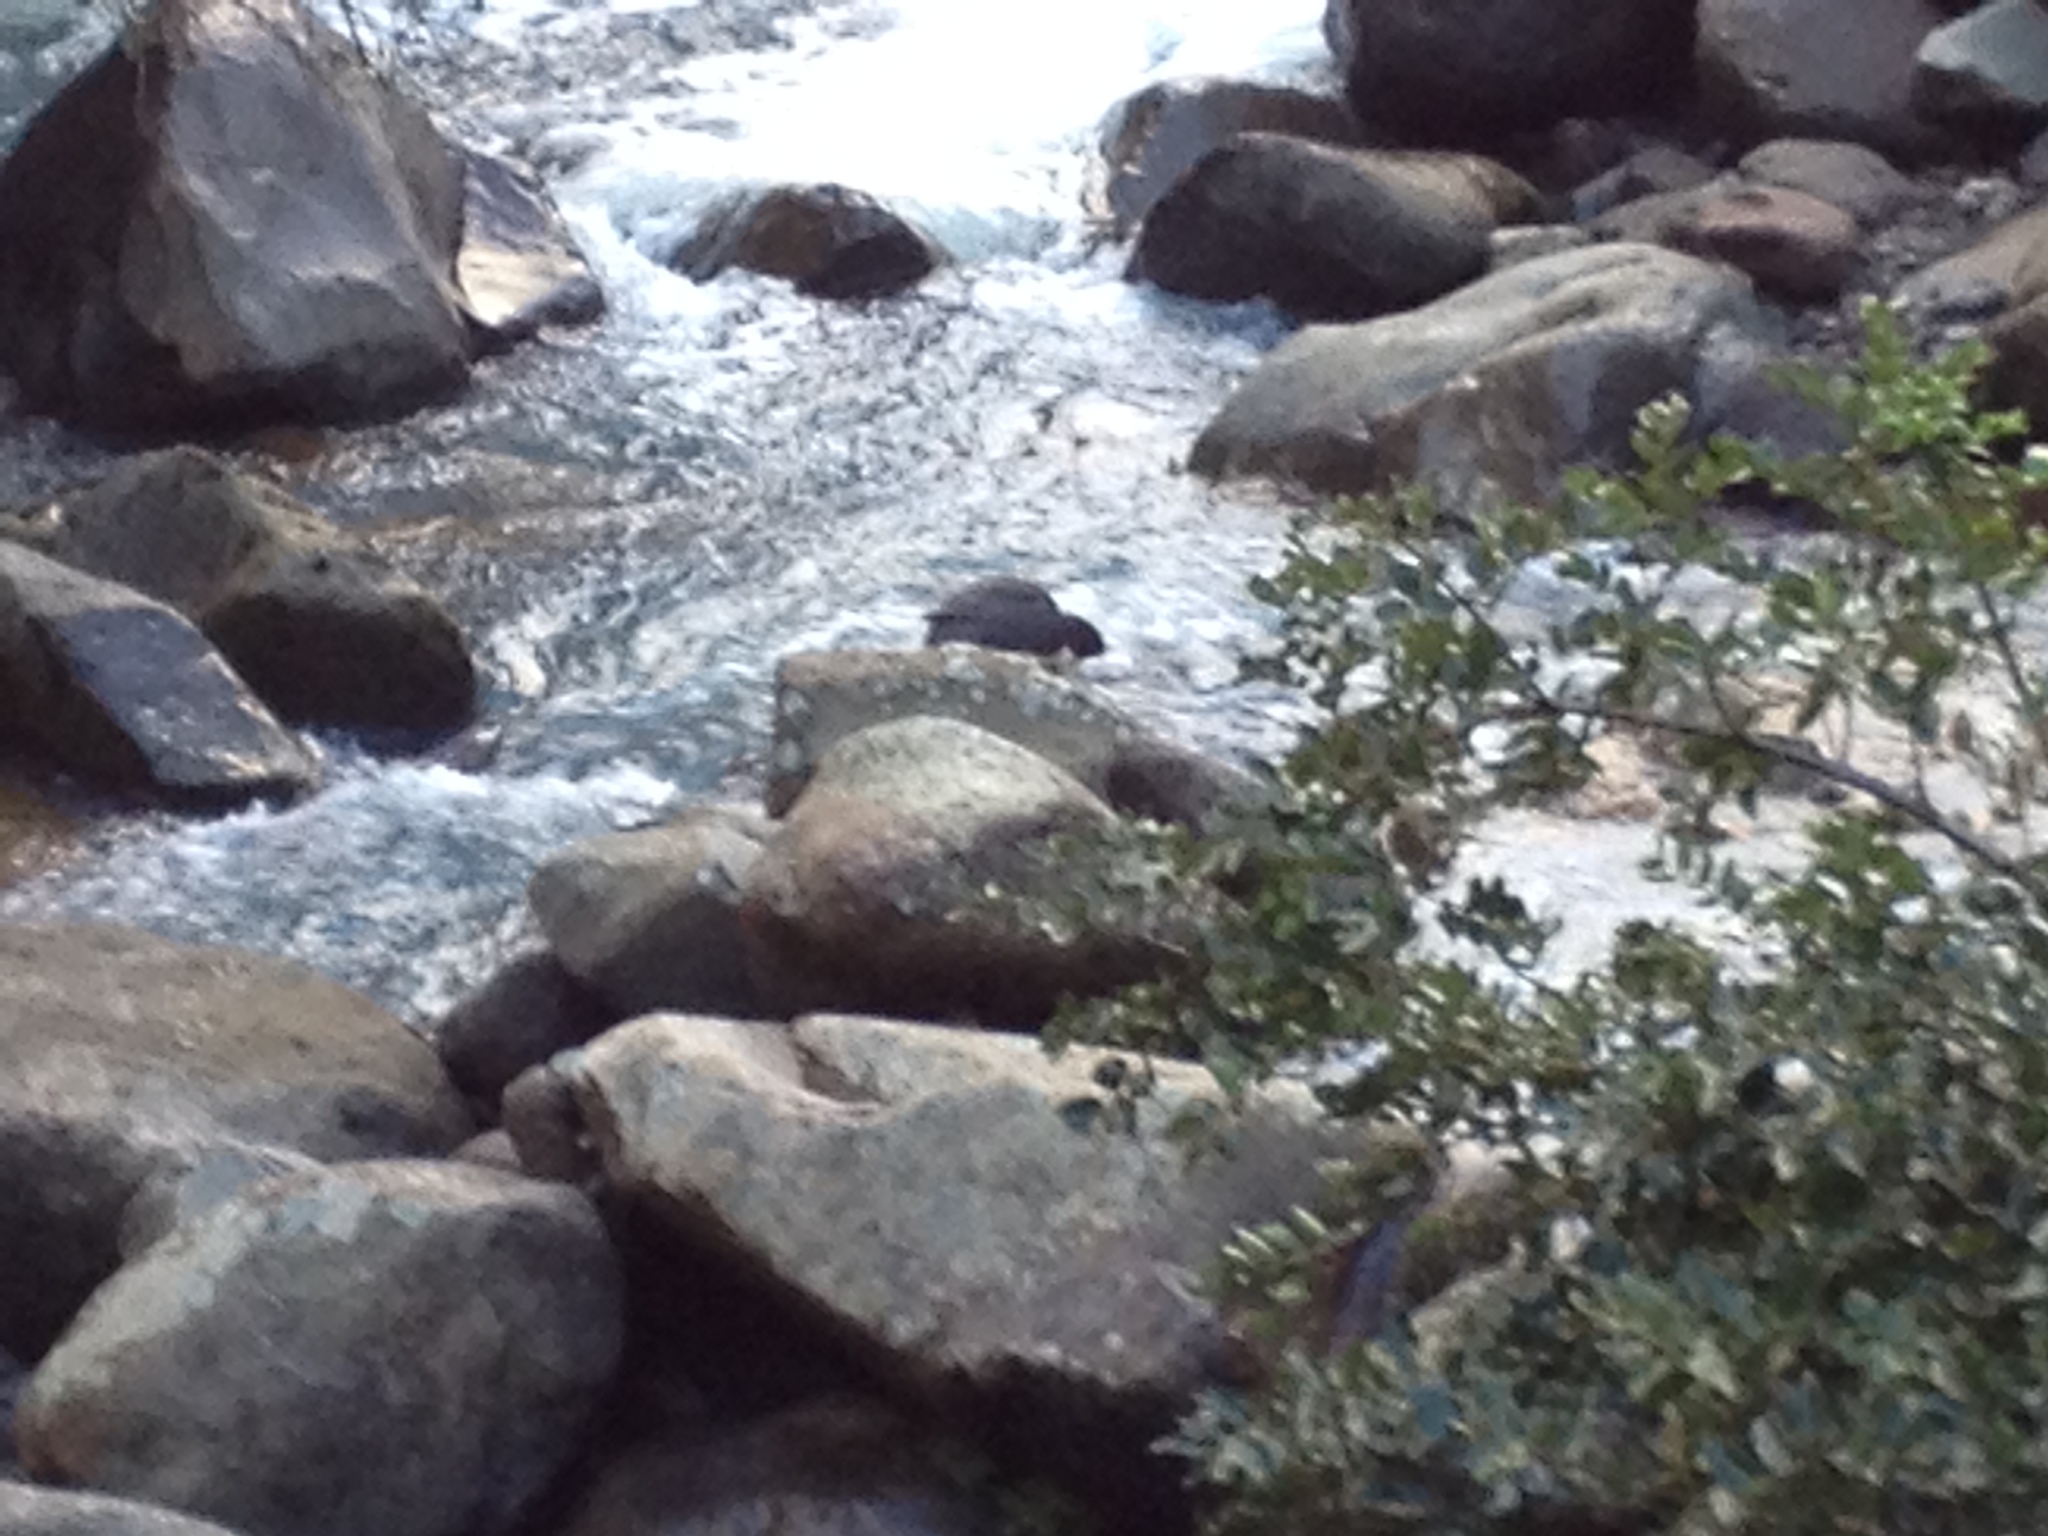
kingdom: Animalia
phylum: Chordata
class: Aves
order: Anseriformes
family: Anatidae
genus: Hymenolaimus
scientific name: Hymenolaimus malacorhynchos
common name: Blue duck
